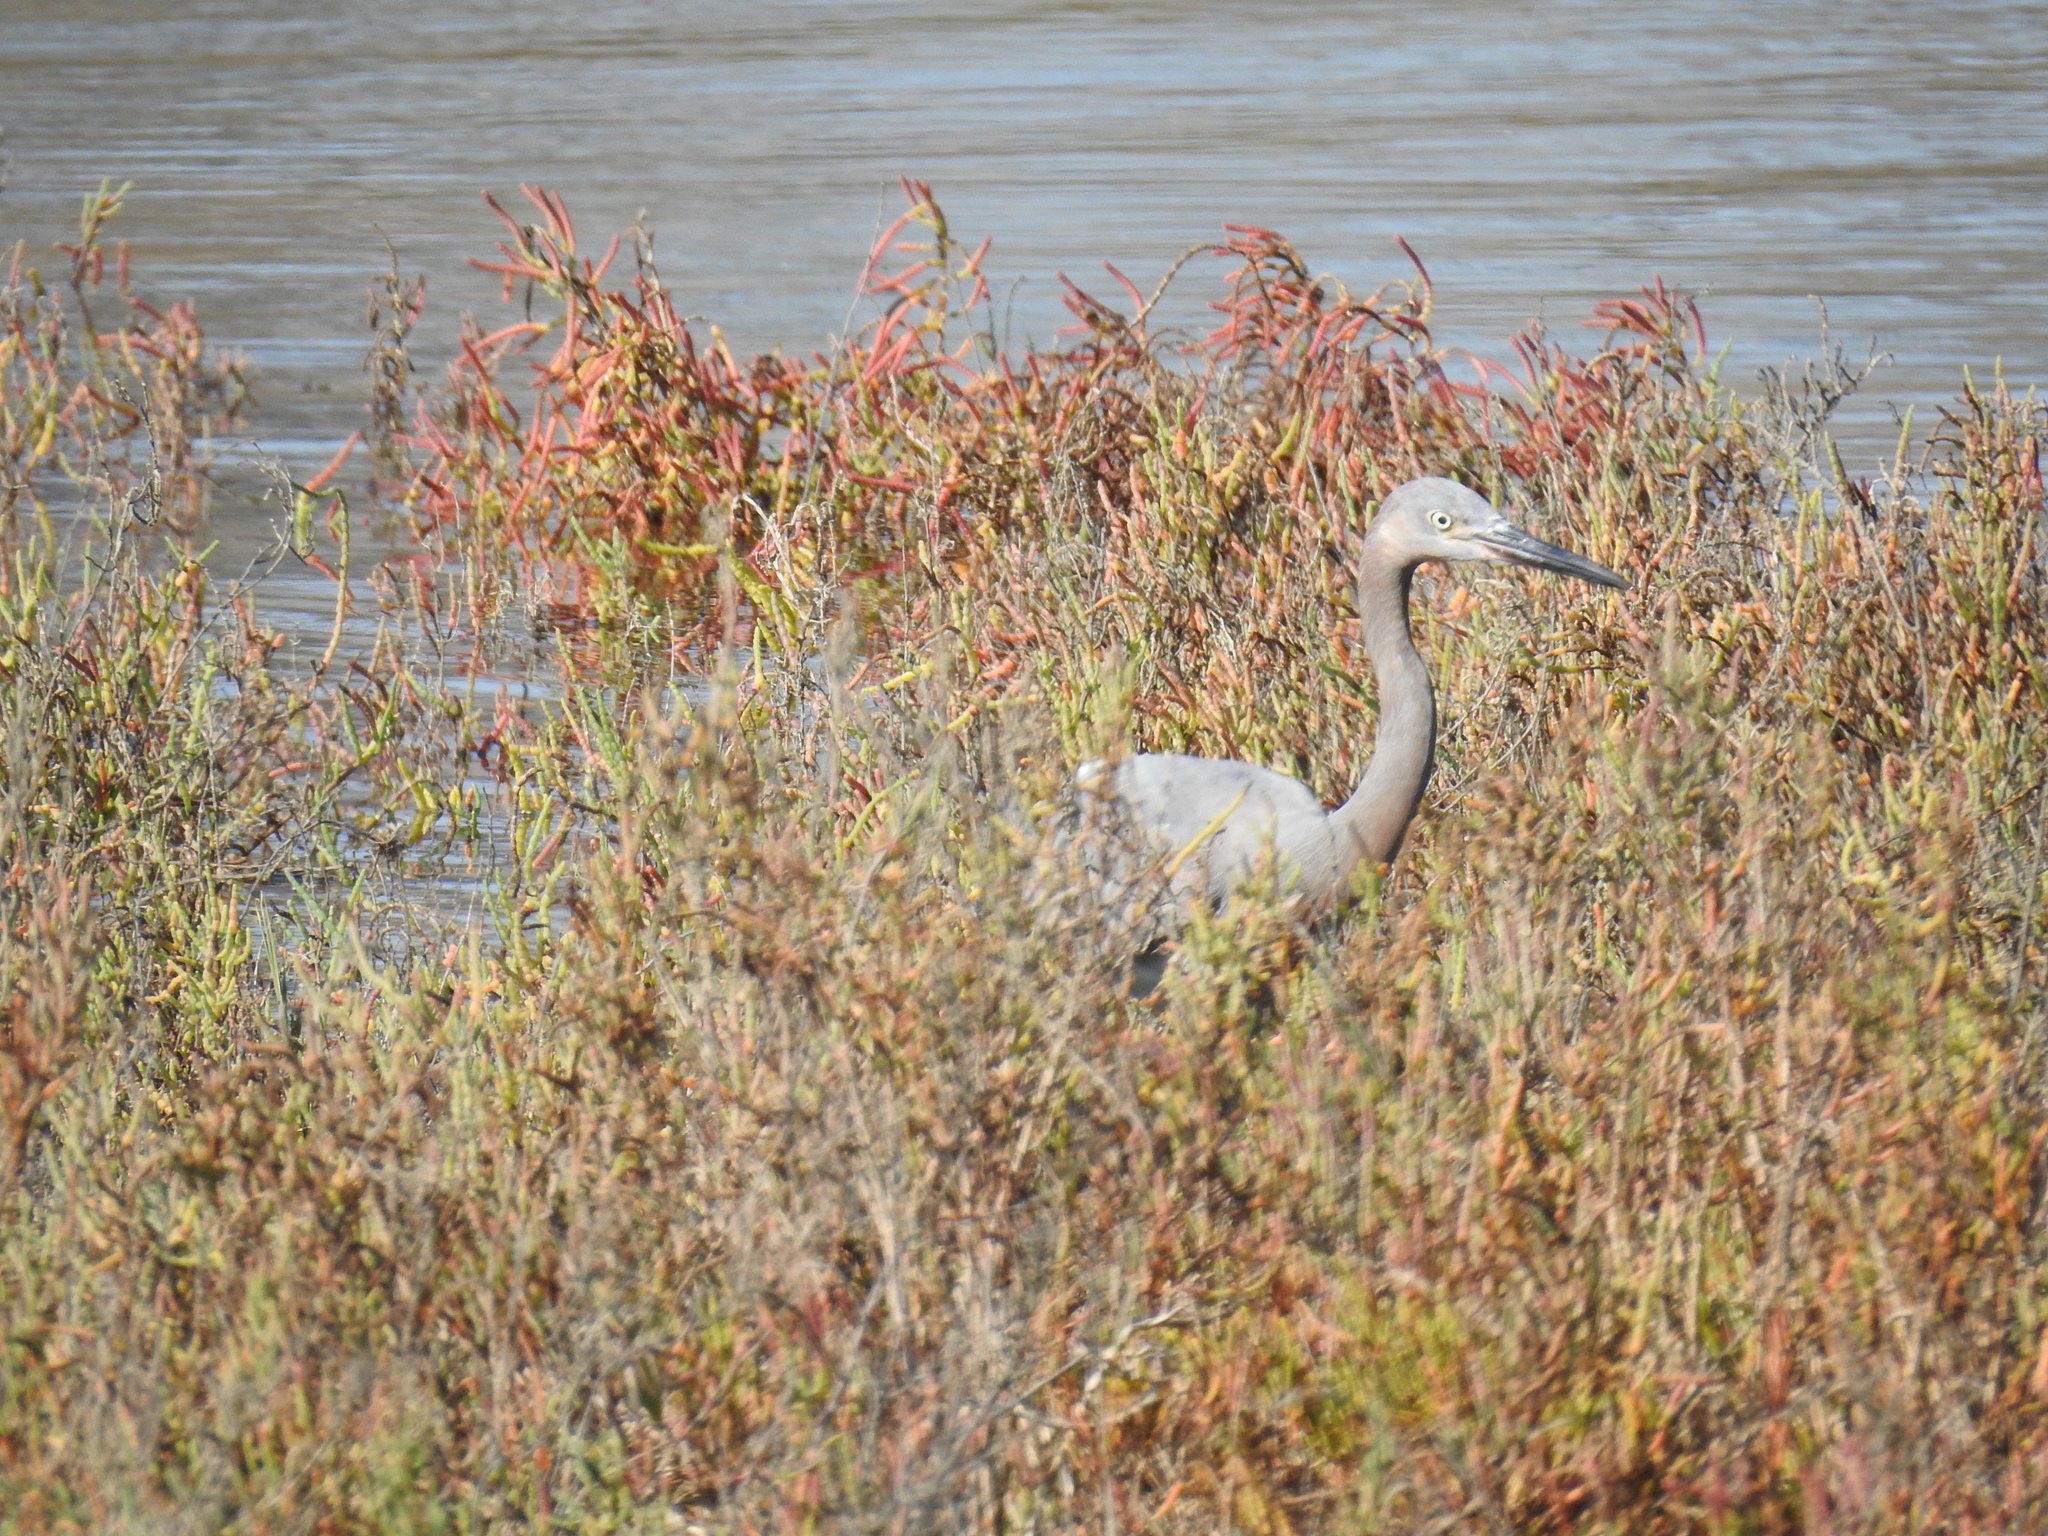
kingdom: Animalia
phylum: Chordata
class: Aves
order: Pelecaniformes
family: Ardeidae
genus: Egretta
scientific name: Egretta rufescens
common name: Reddish egret
